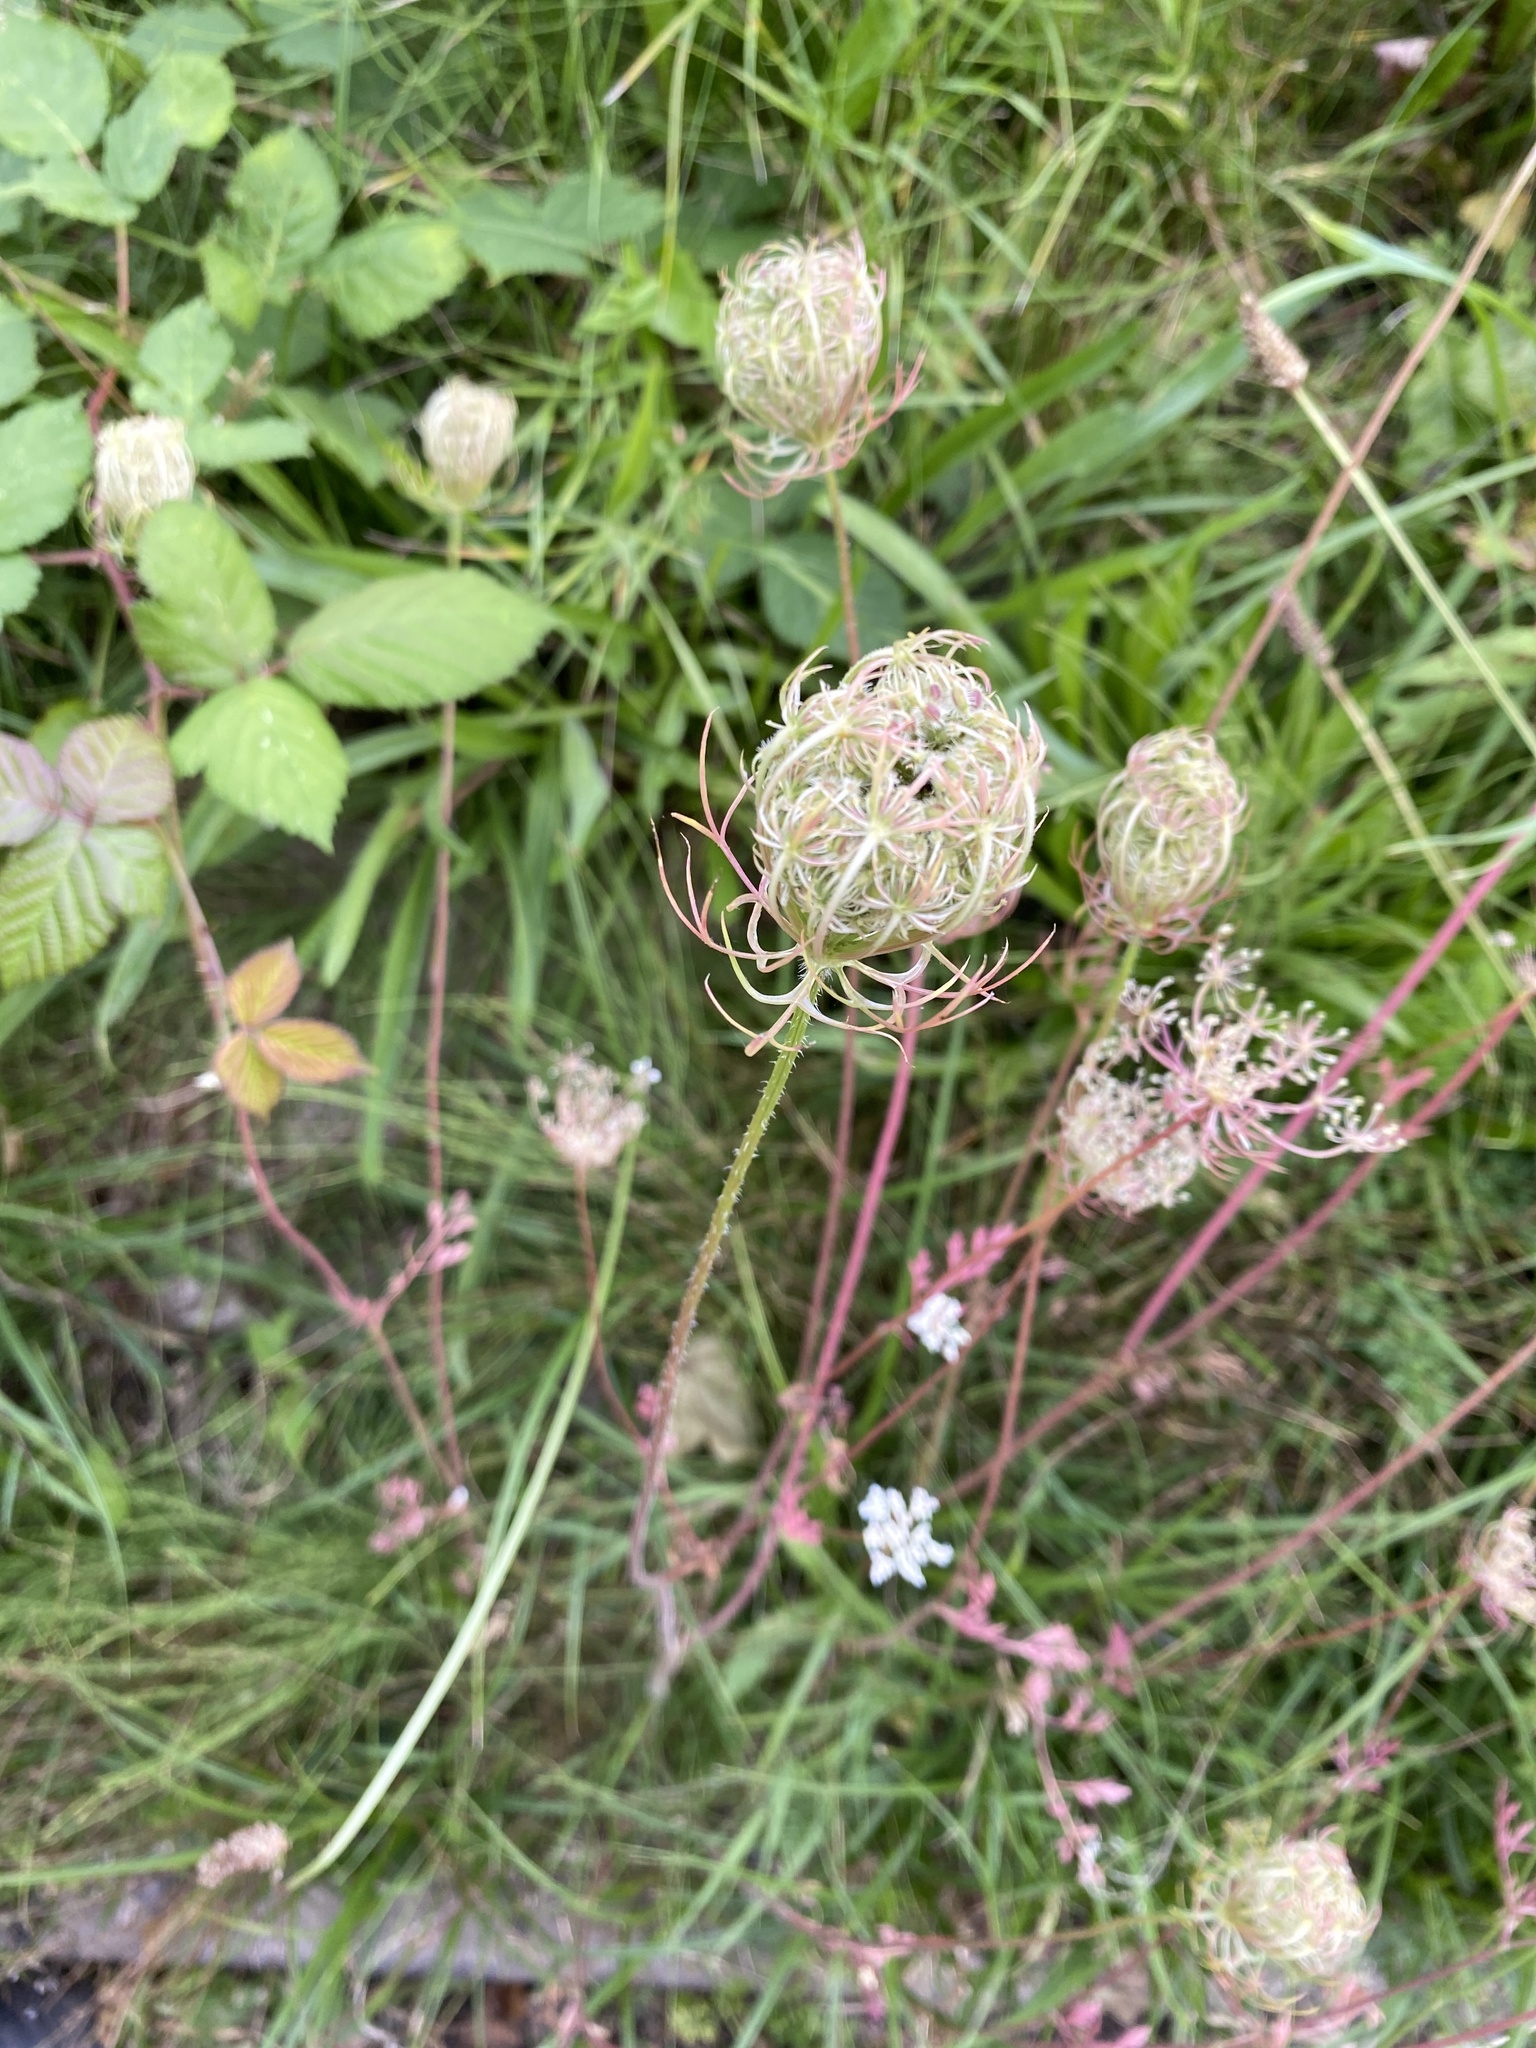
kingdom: Plantae
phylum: Tracheophyta
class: Magnoliopsida
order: Apiales
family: Apiaceae
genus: Daucus
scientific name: Daucus carota
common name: Wild carrot
